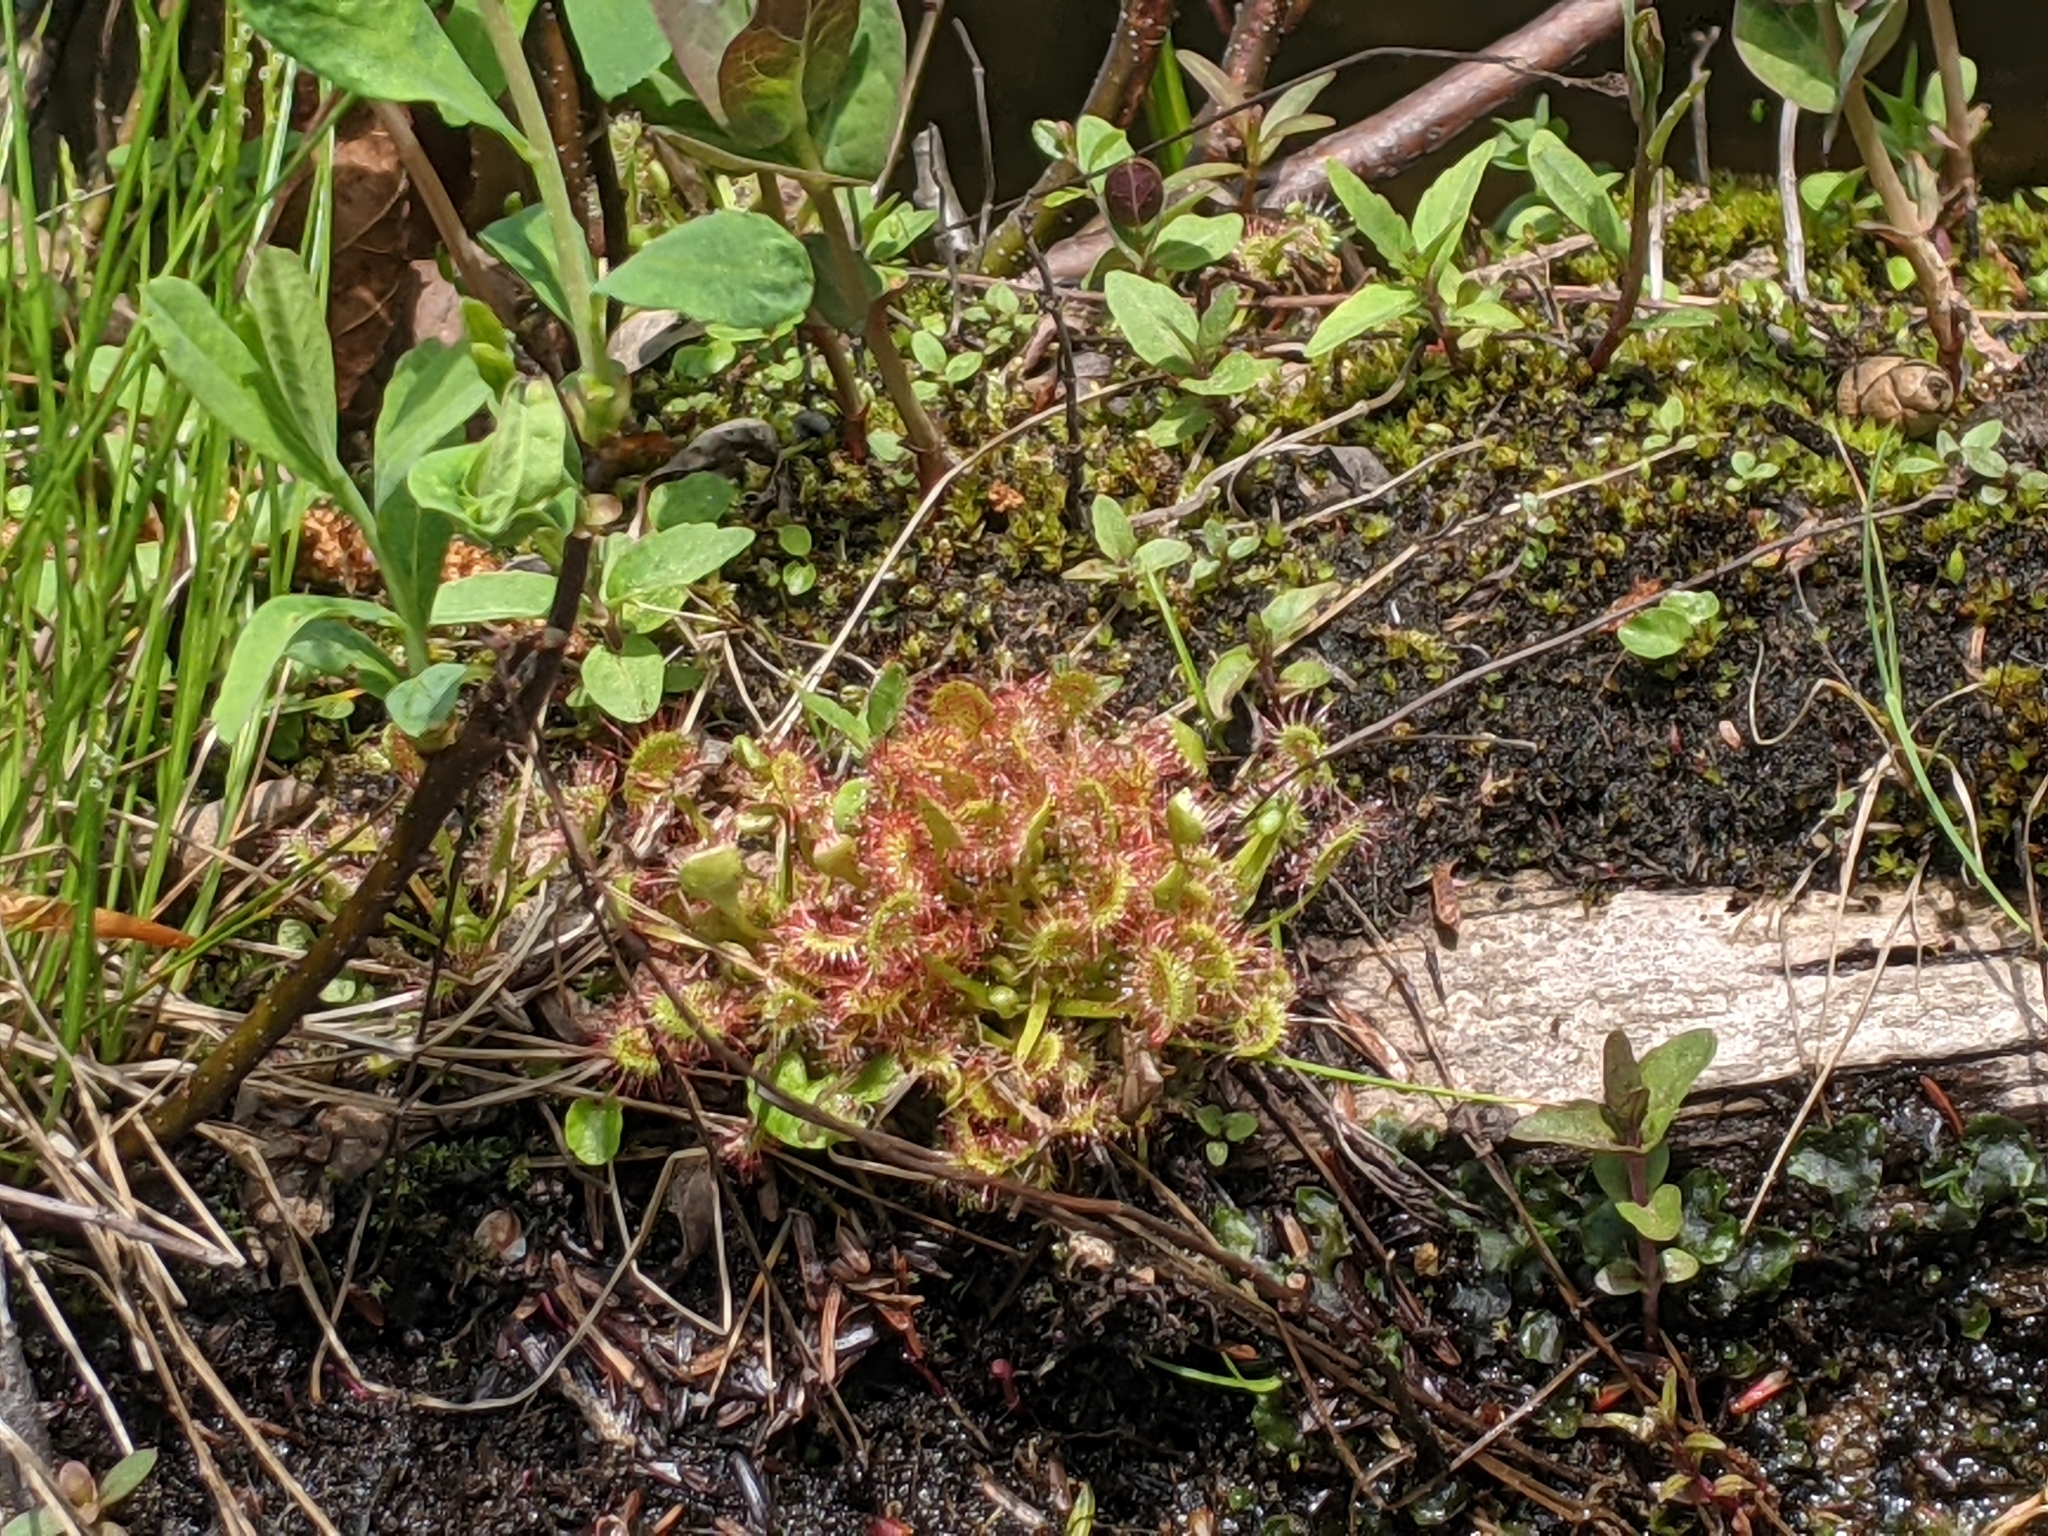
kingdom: Plantae
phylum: Tracheophyta
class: Magnoliopsida
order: Caryophyllales
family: Droseraceae
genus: Drosera
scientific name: Drosera rotundifolia
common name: Round-leaved sundew
